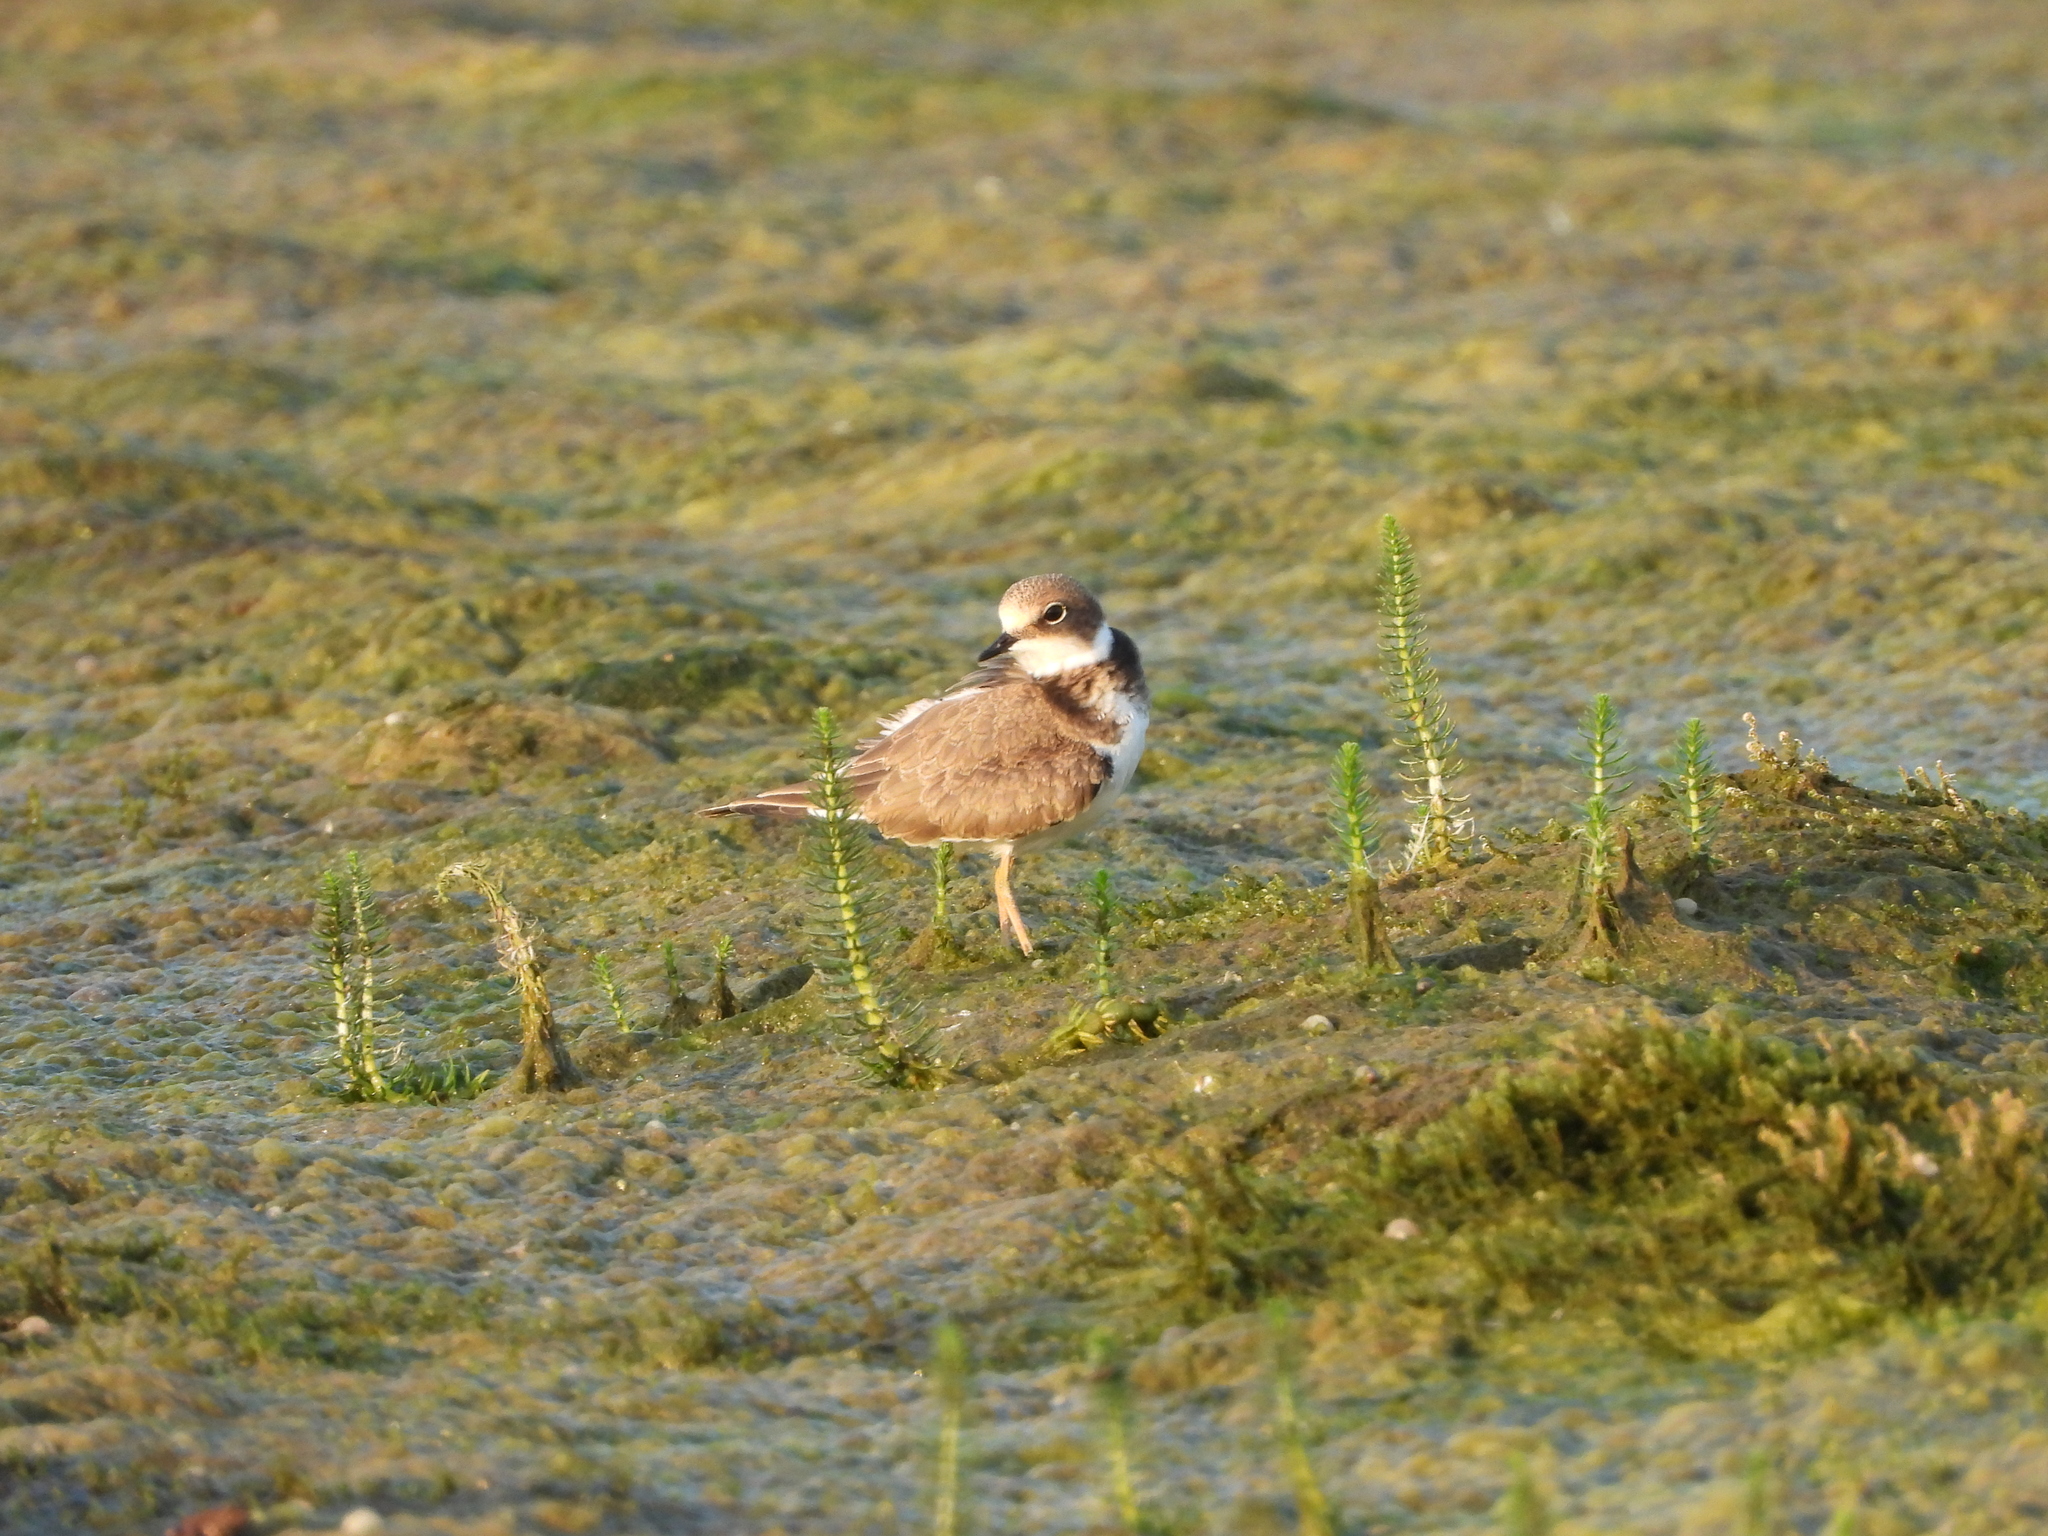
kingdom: Animalia
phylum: Chordata
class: Aves
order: Charadriiformes
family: Charadriidae
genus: Charadrius
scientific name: Charadrius dubius
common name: Little ringed plover
